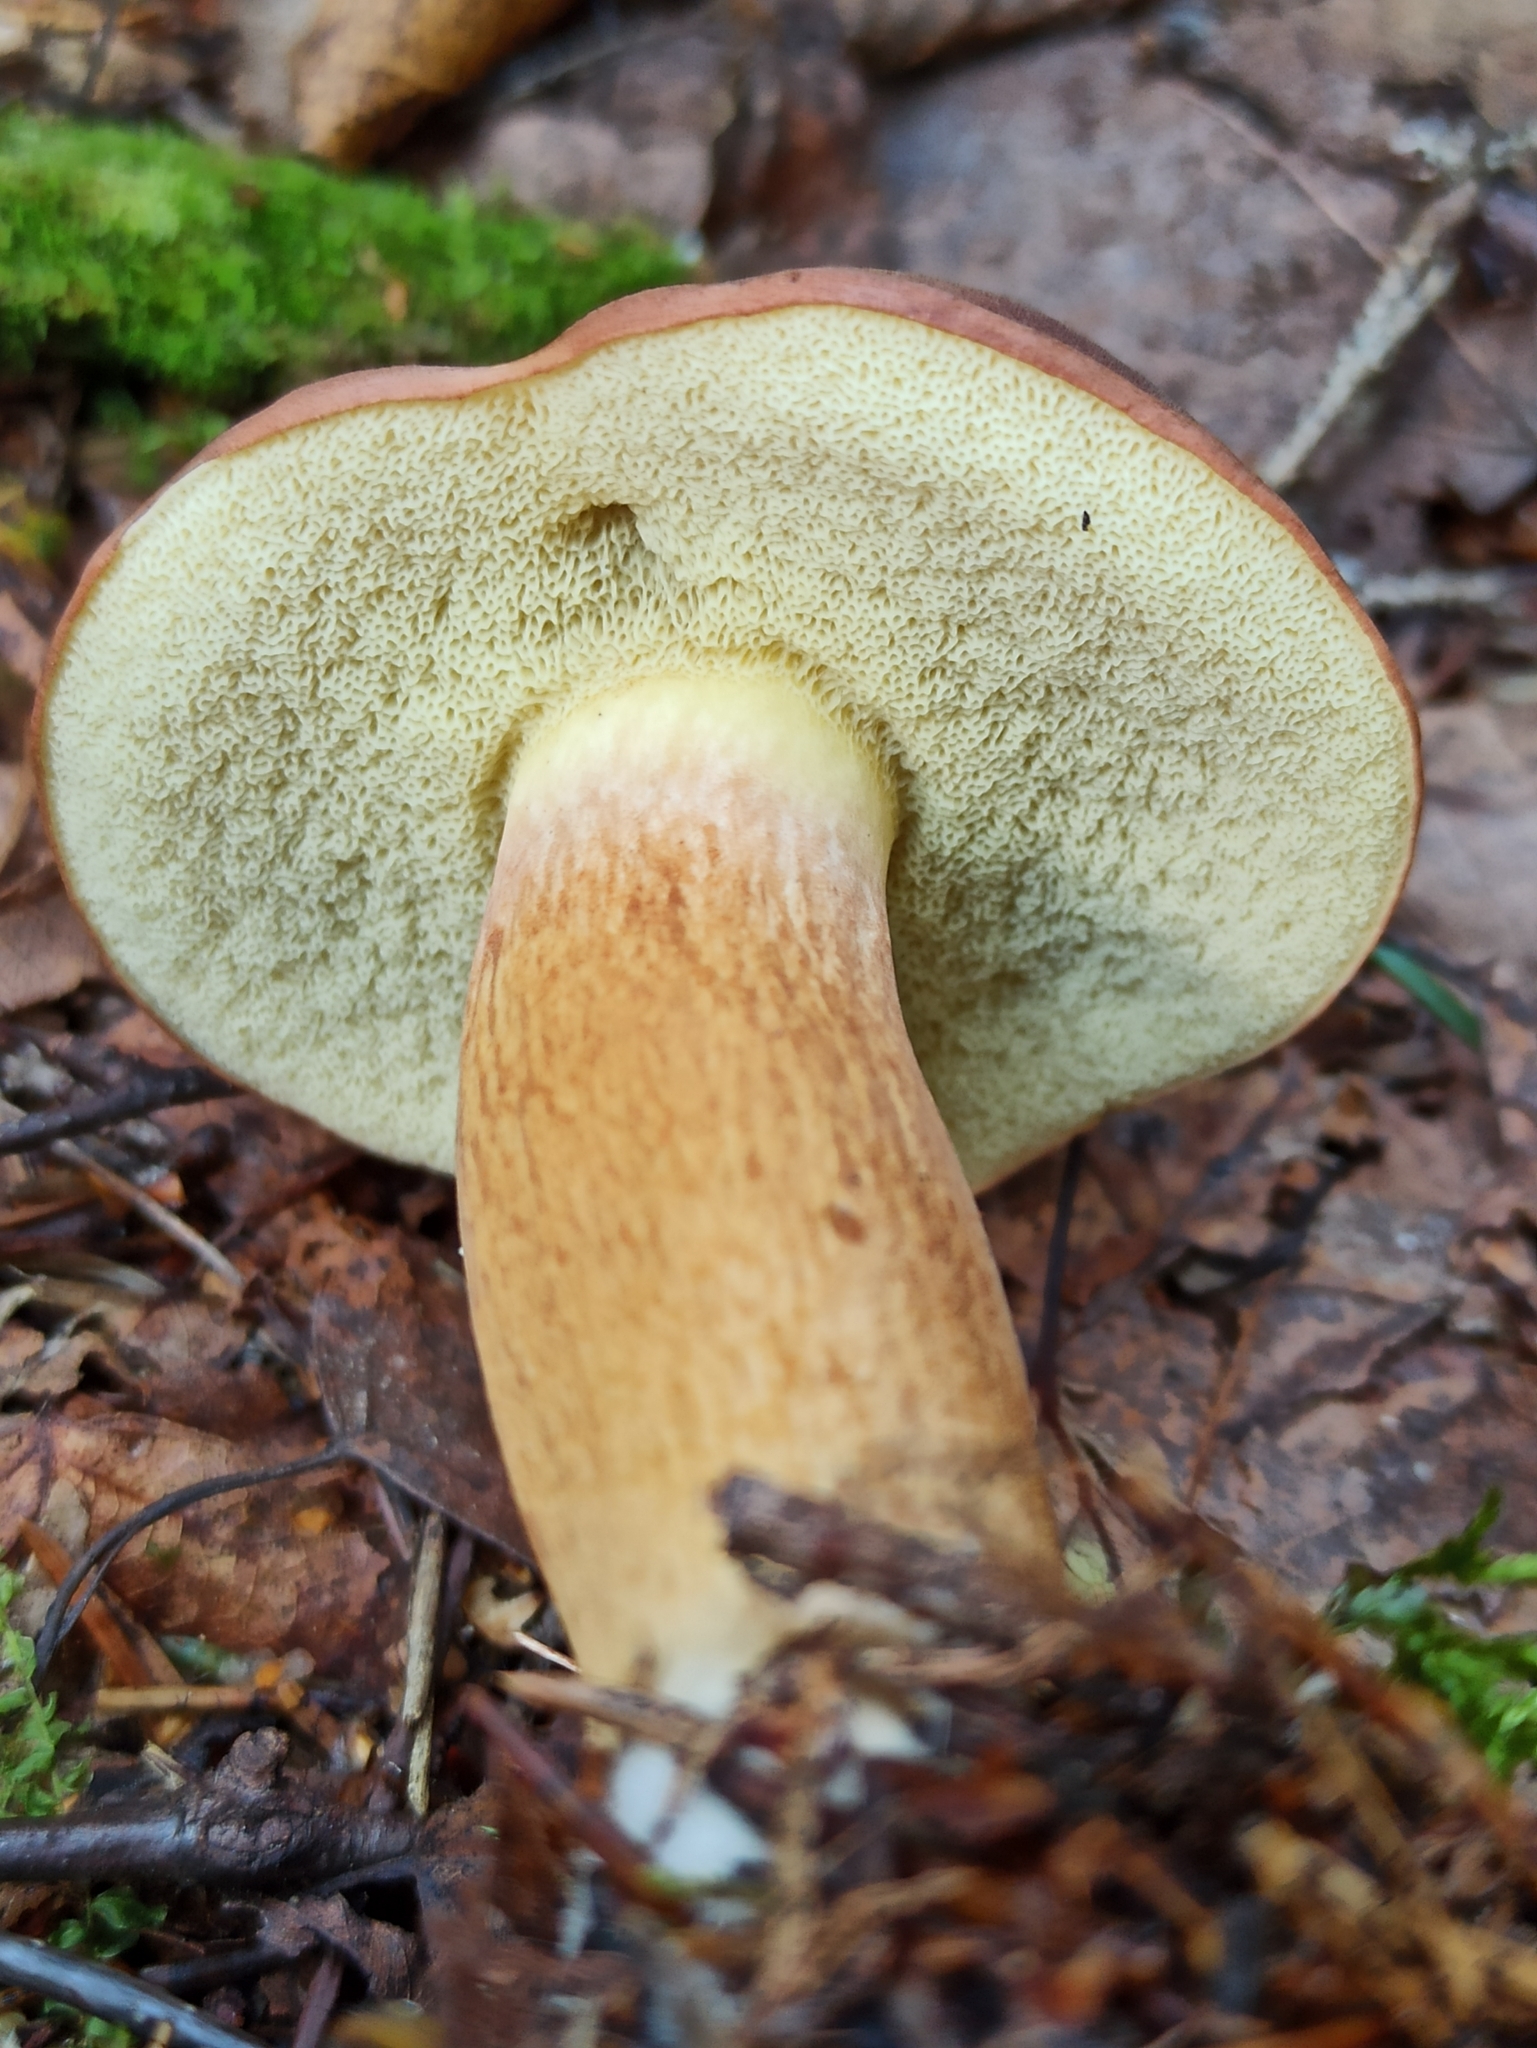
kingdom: Fungi
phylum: Basidiomycota
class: Agaricomycetes
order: Boletales
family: Boletaceae
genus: Imleria
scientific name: Imleria badia
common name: Bay bolete
